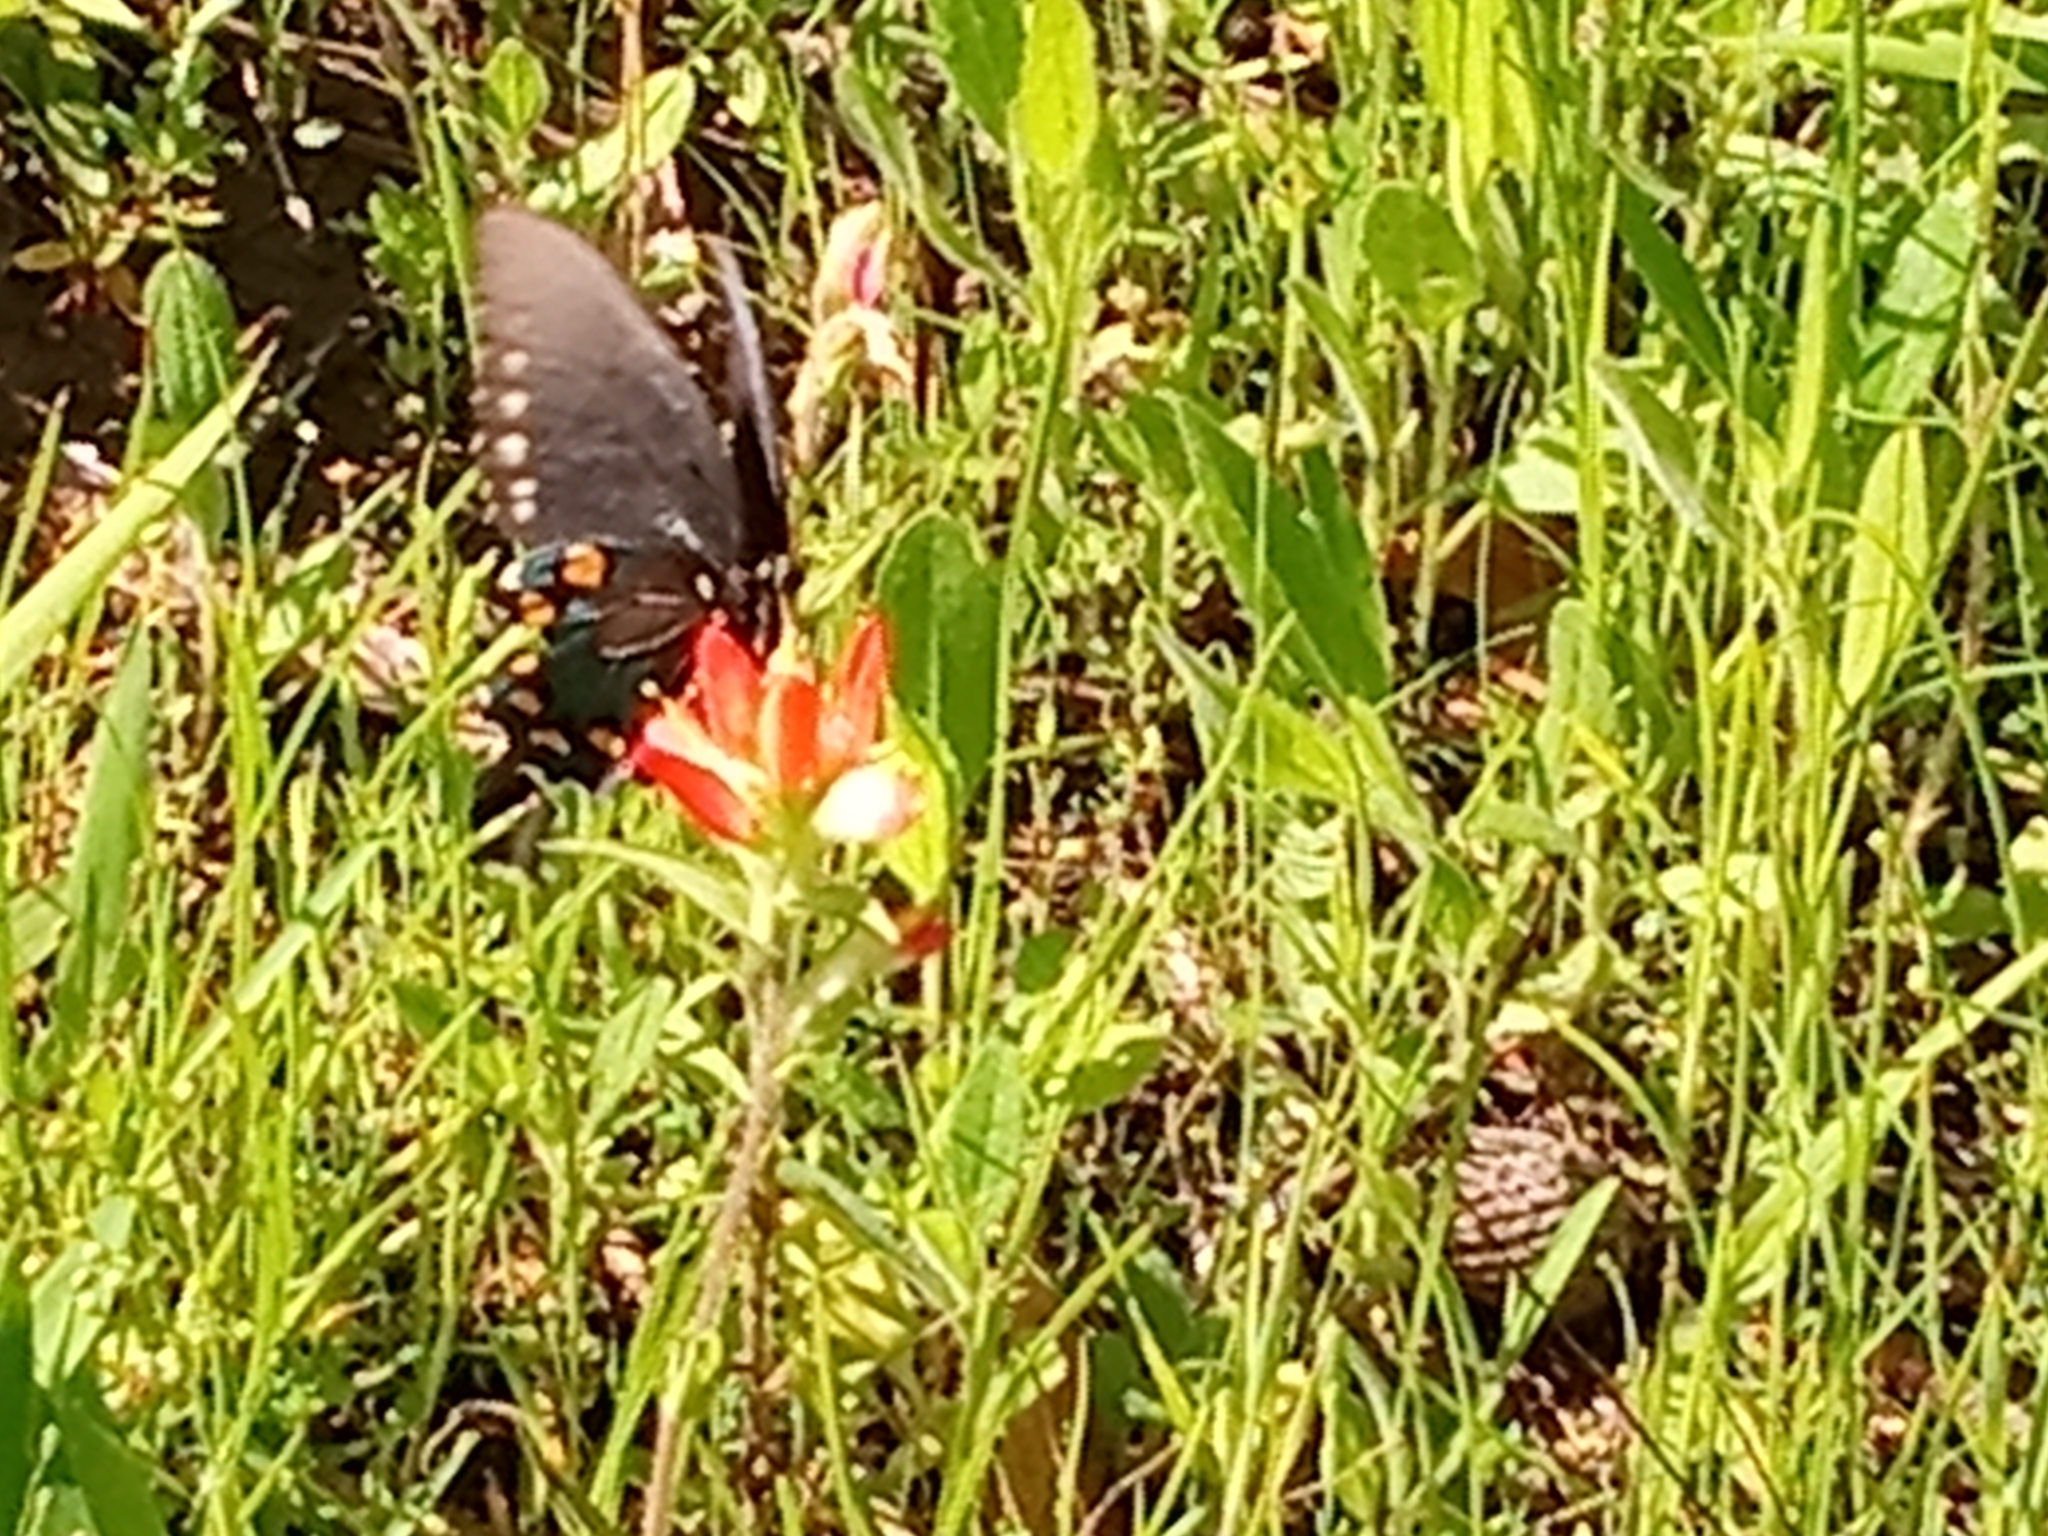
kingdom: Animalia
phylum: Arthropoda
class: Insecta
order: Lepidoptera
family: Papilionidae
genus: Battus
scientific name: Battus philenor
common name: Pipevine swallowtail
